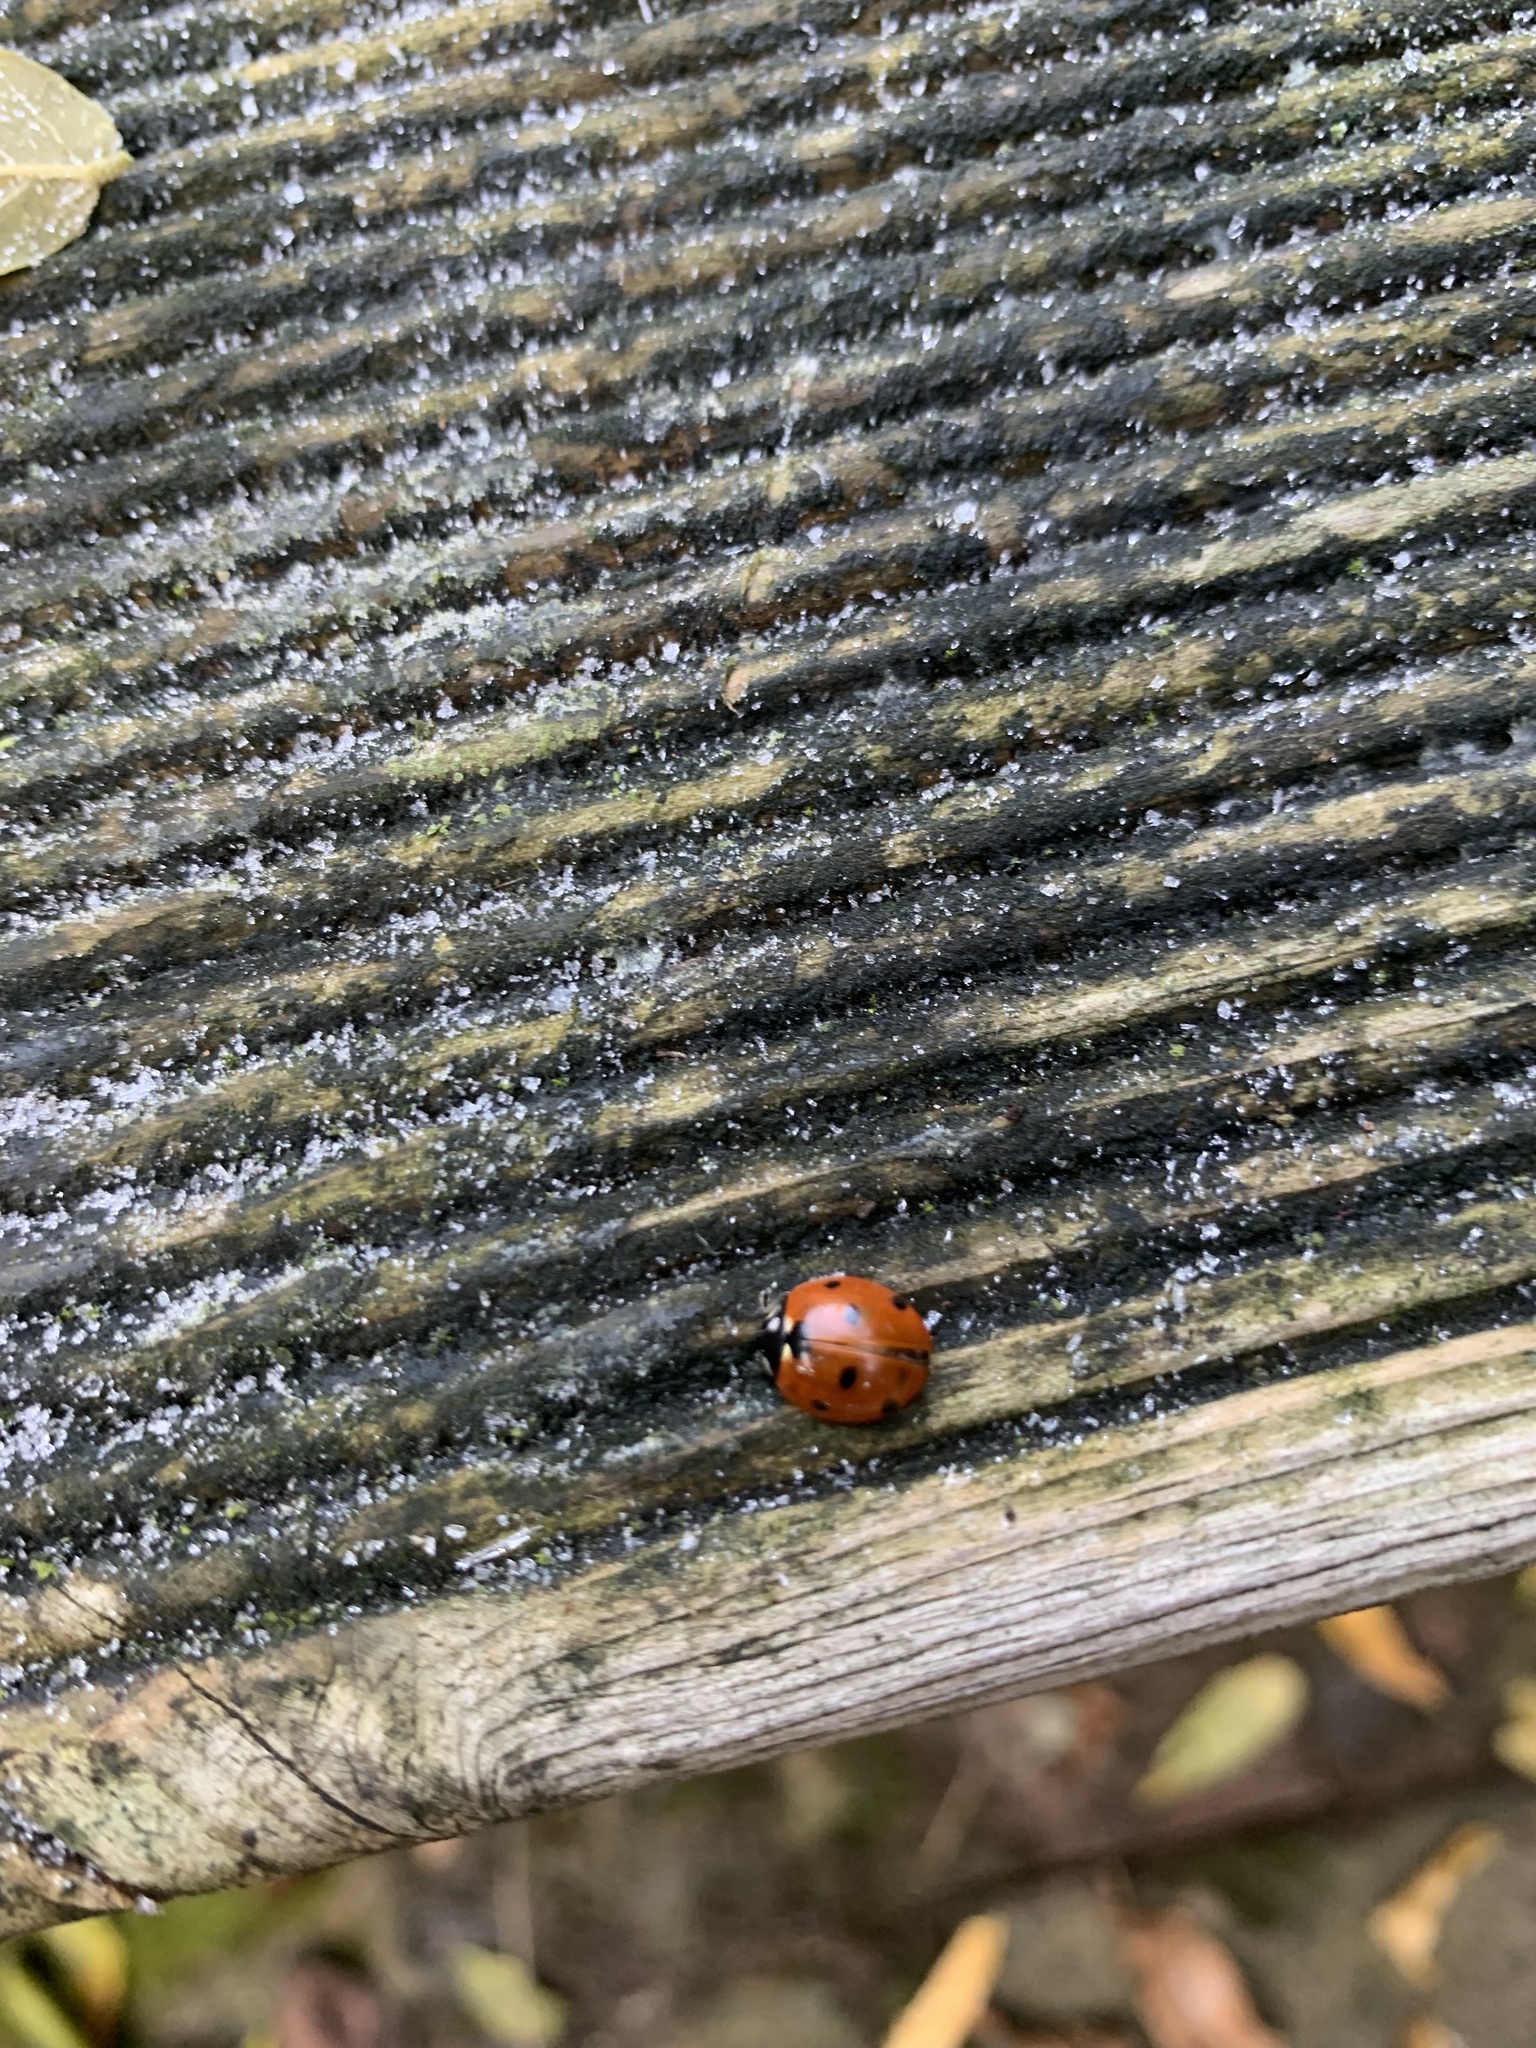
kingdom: Animalia
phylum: Arthropoda
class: Insecta
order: Coleoptera
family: Coccinellidae
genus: Coccinella
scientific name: Coccinella septempunctata
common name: Sevenspotted lady beetle
